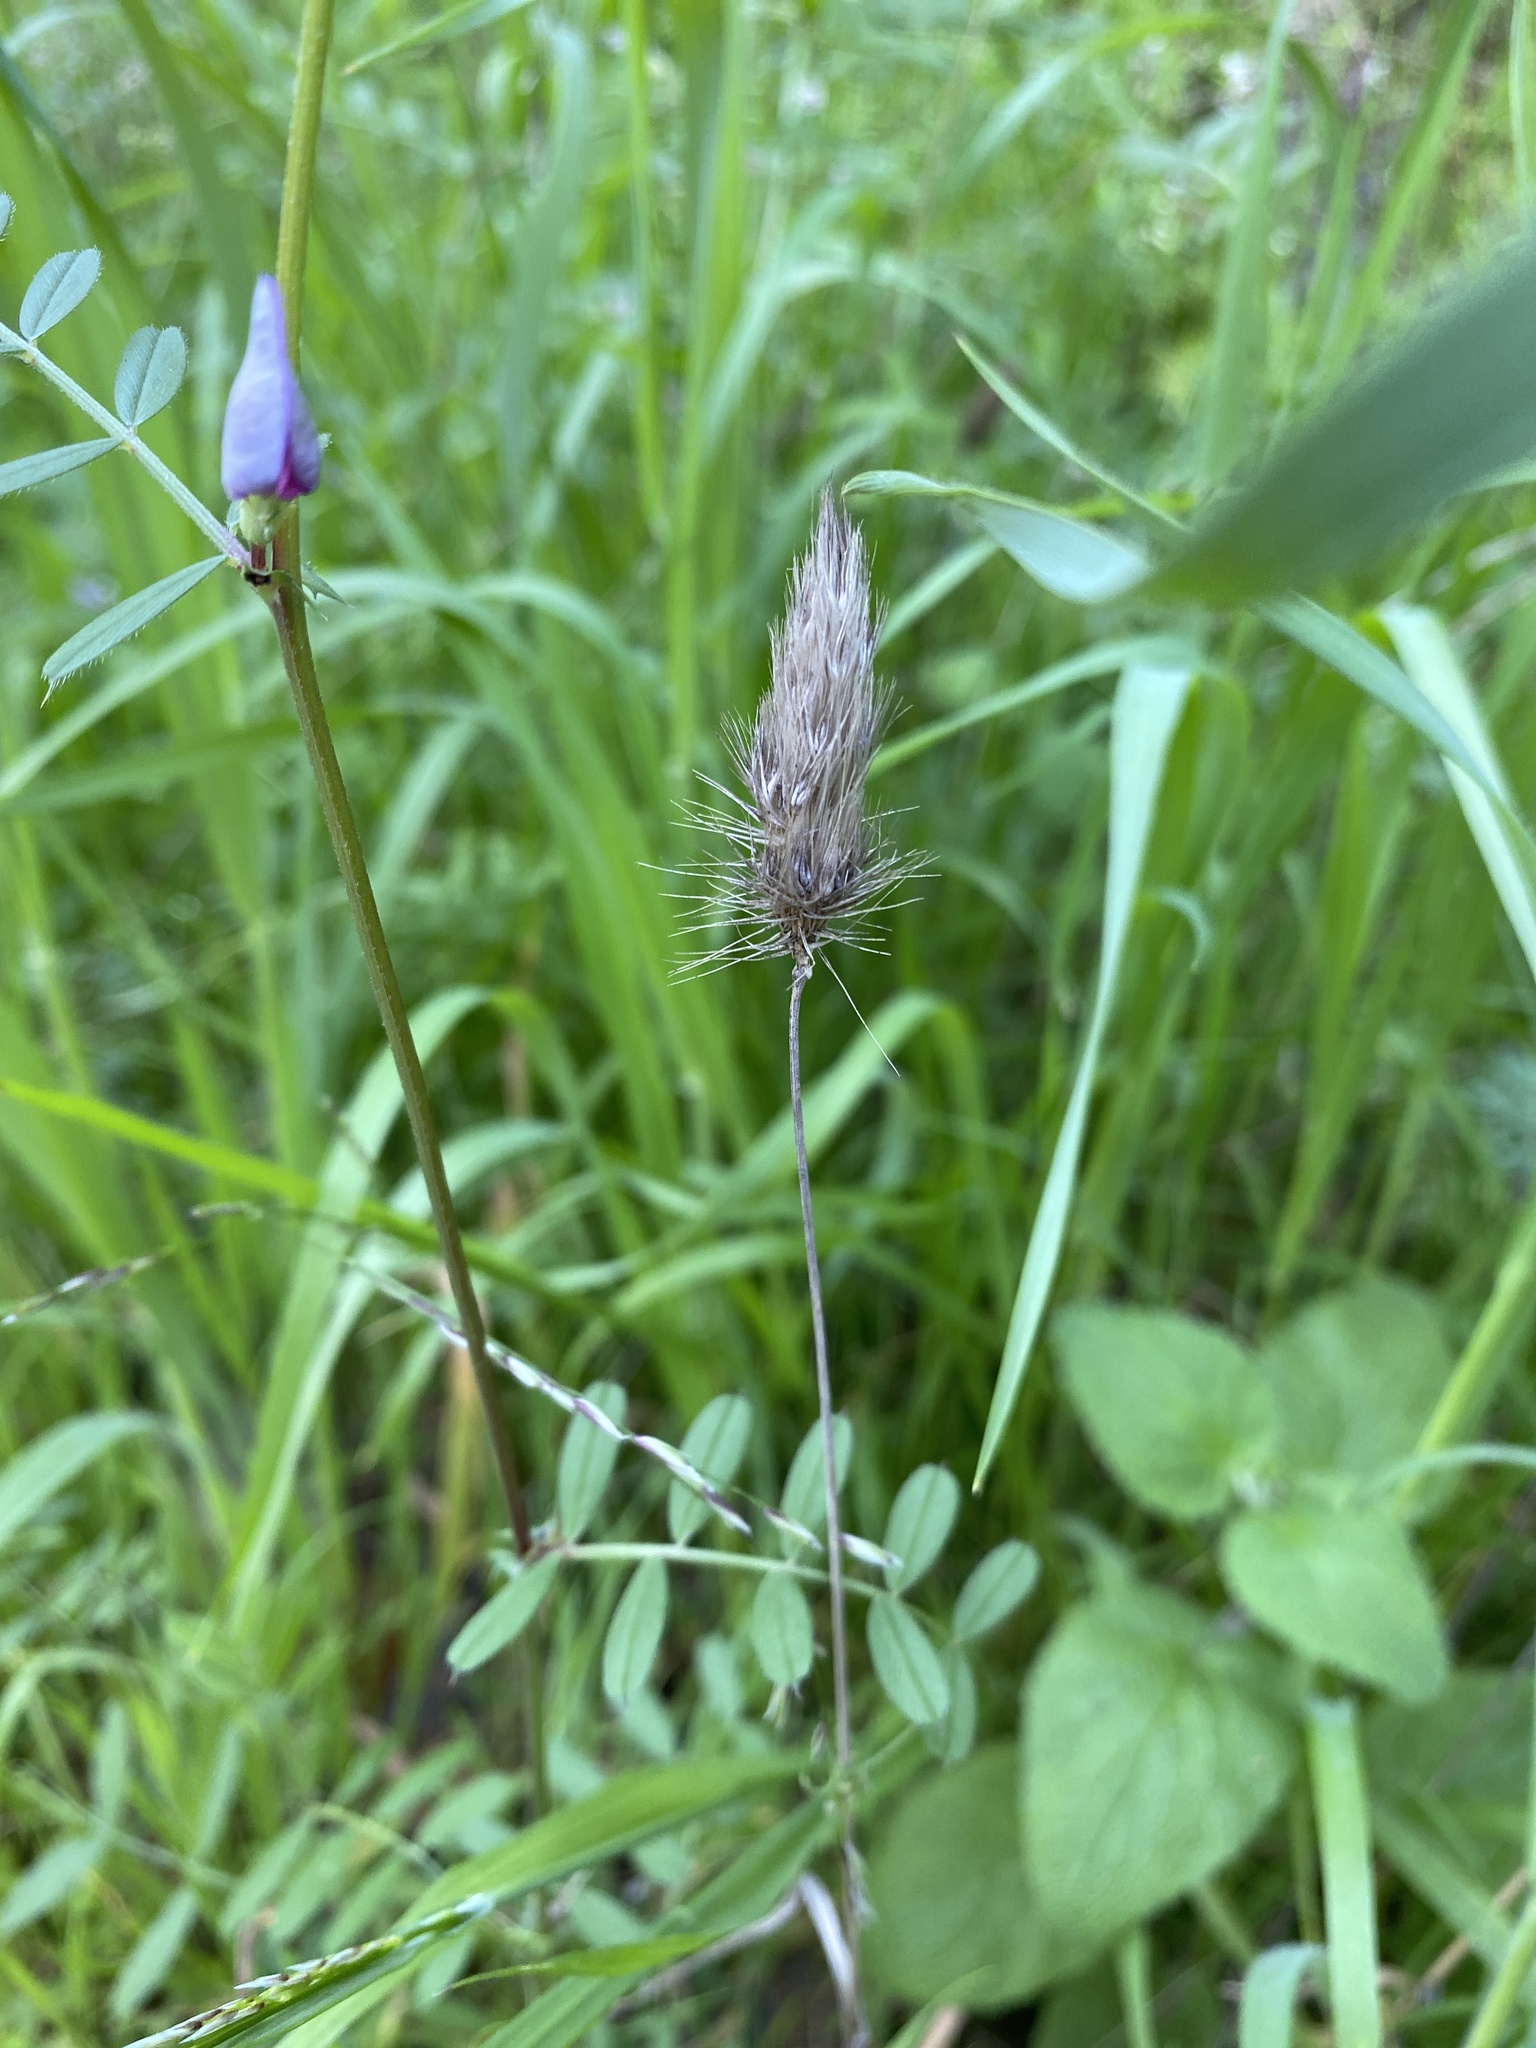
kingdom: Plantae
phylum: Tracheophyta
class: Liliopsida
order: Poales
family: Poaceae
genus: Cynosurus
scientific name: Cynosurus echinatus
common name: Rough dog's-tail
